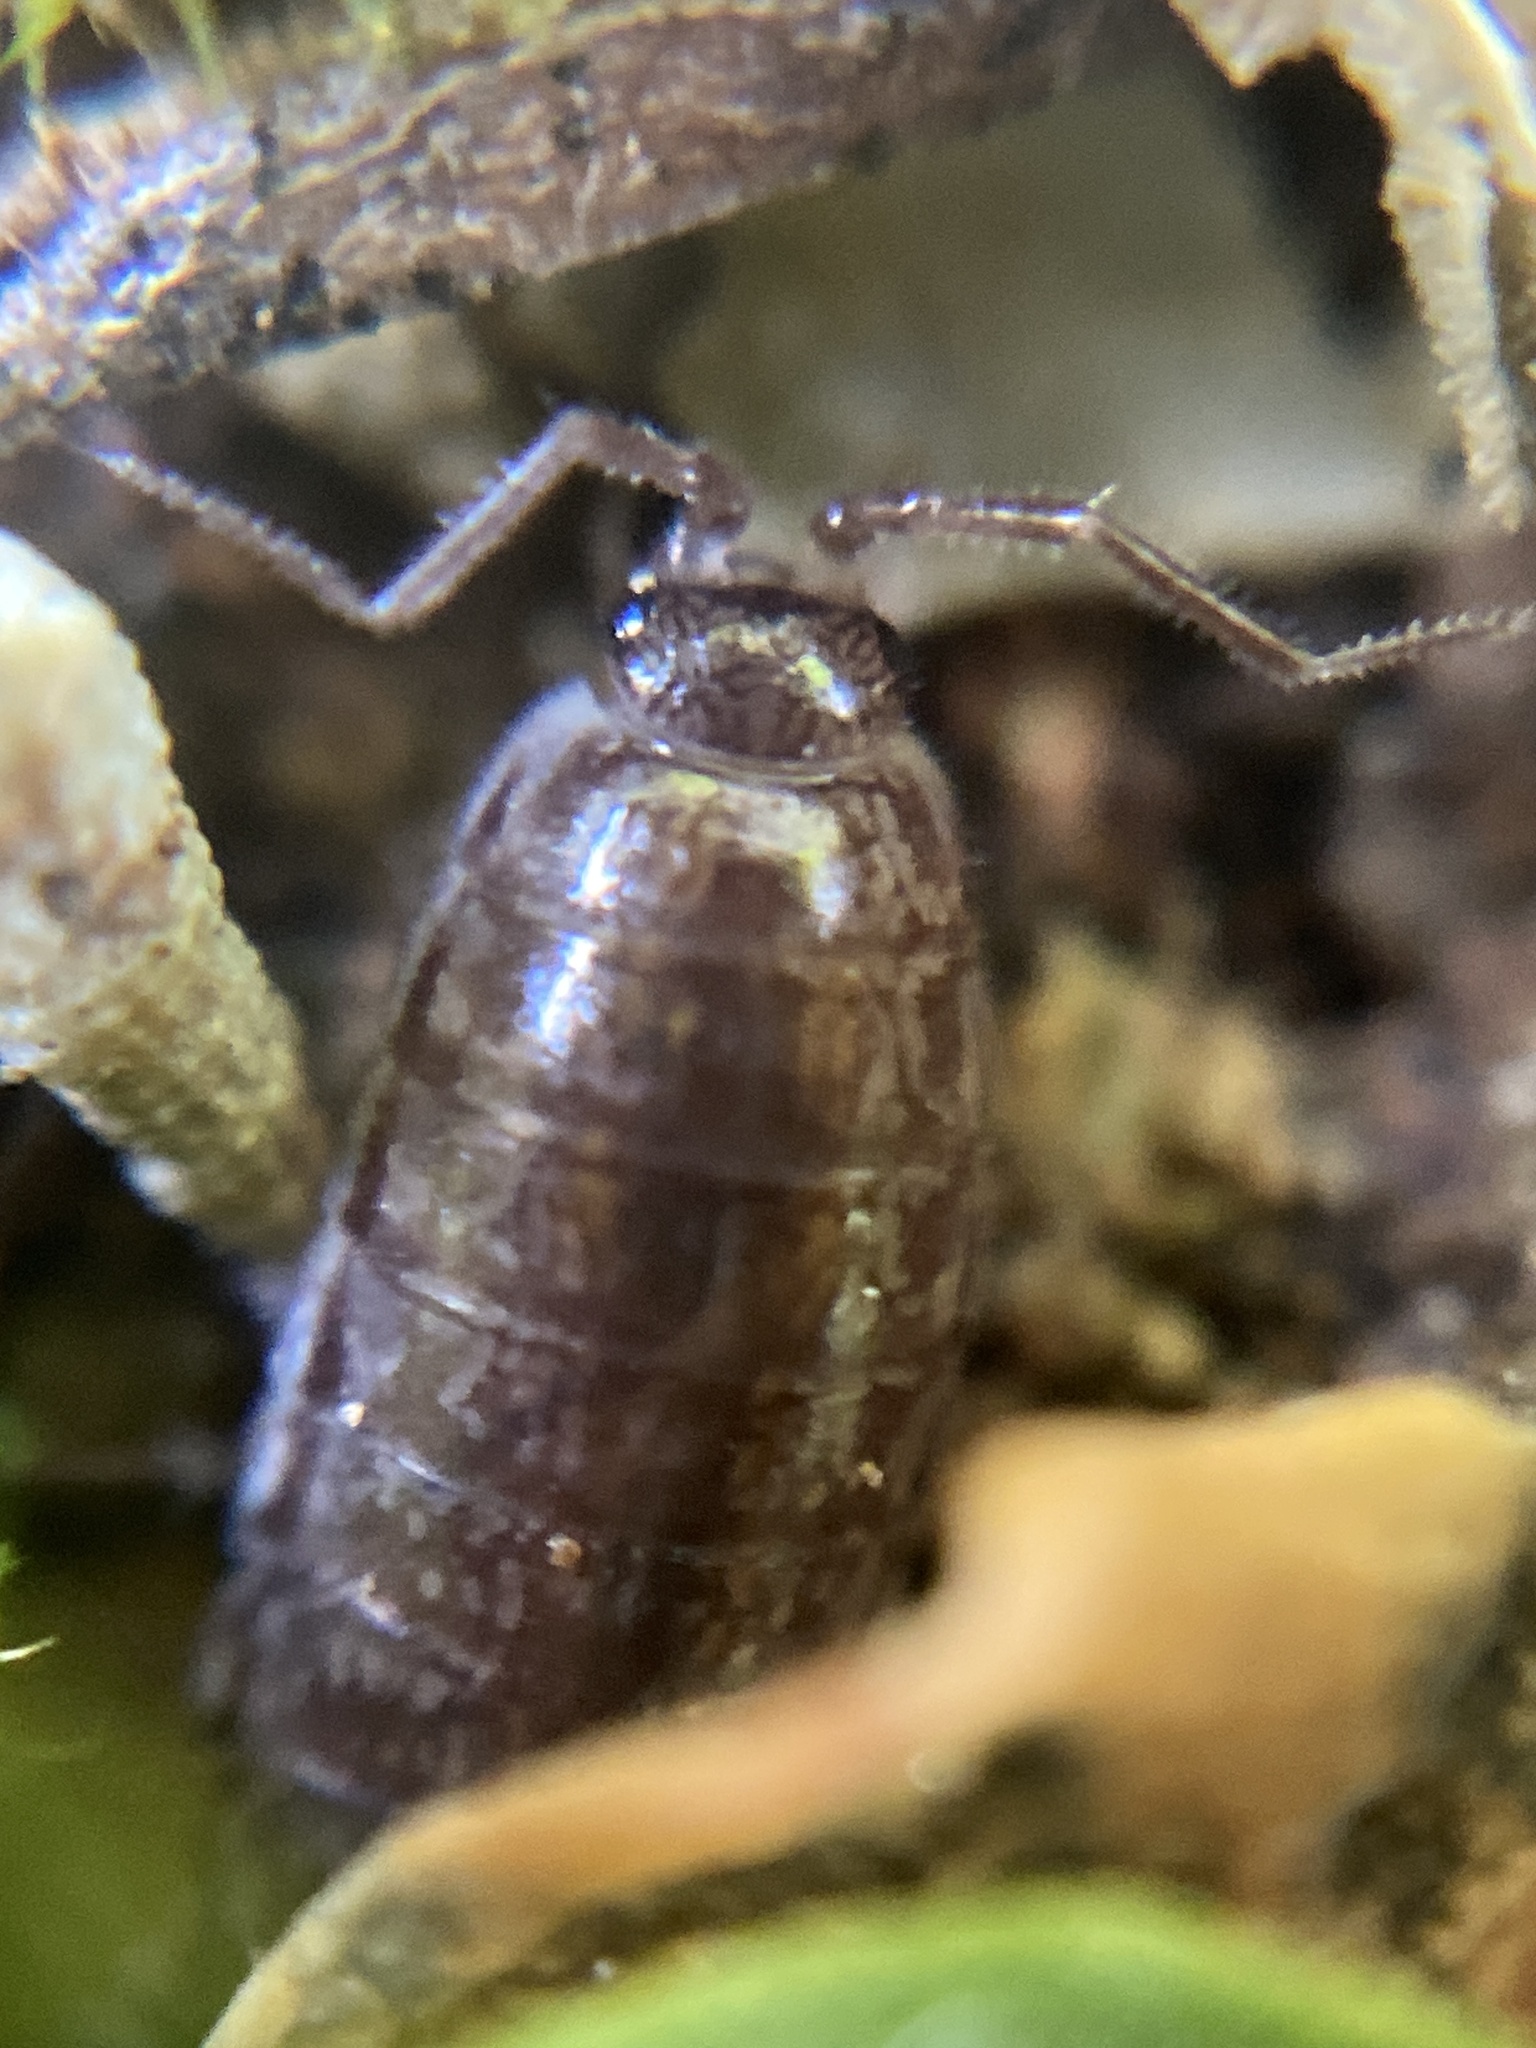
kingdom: Animalia
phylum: Arthropoda
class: Malacostraca
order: Isopoda
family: Philosciidae
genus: Chaetophiloscia
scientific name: Chaetophiloscia elongata
